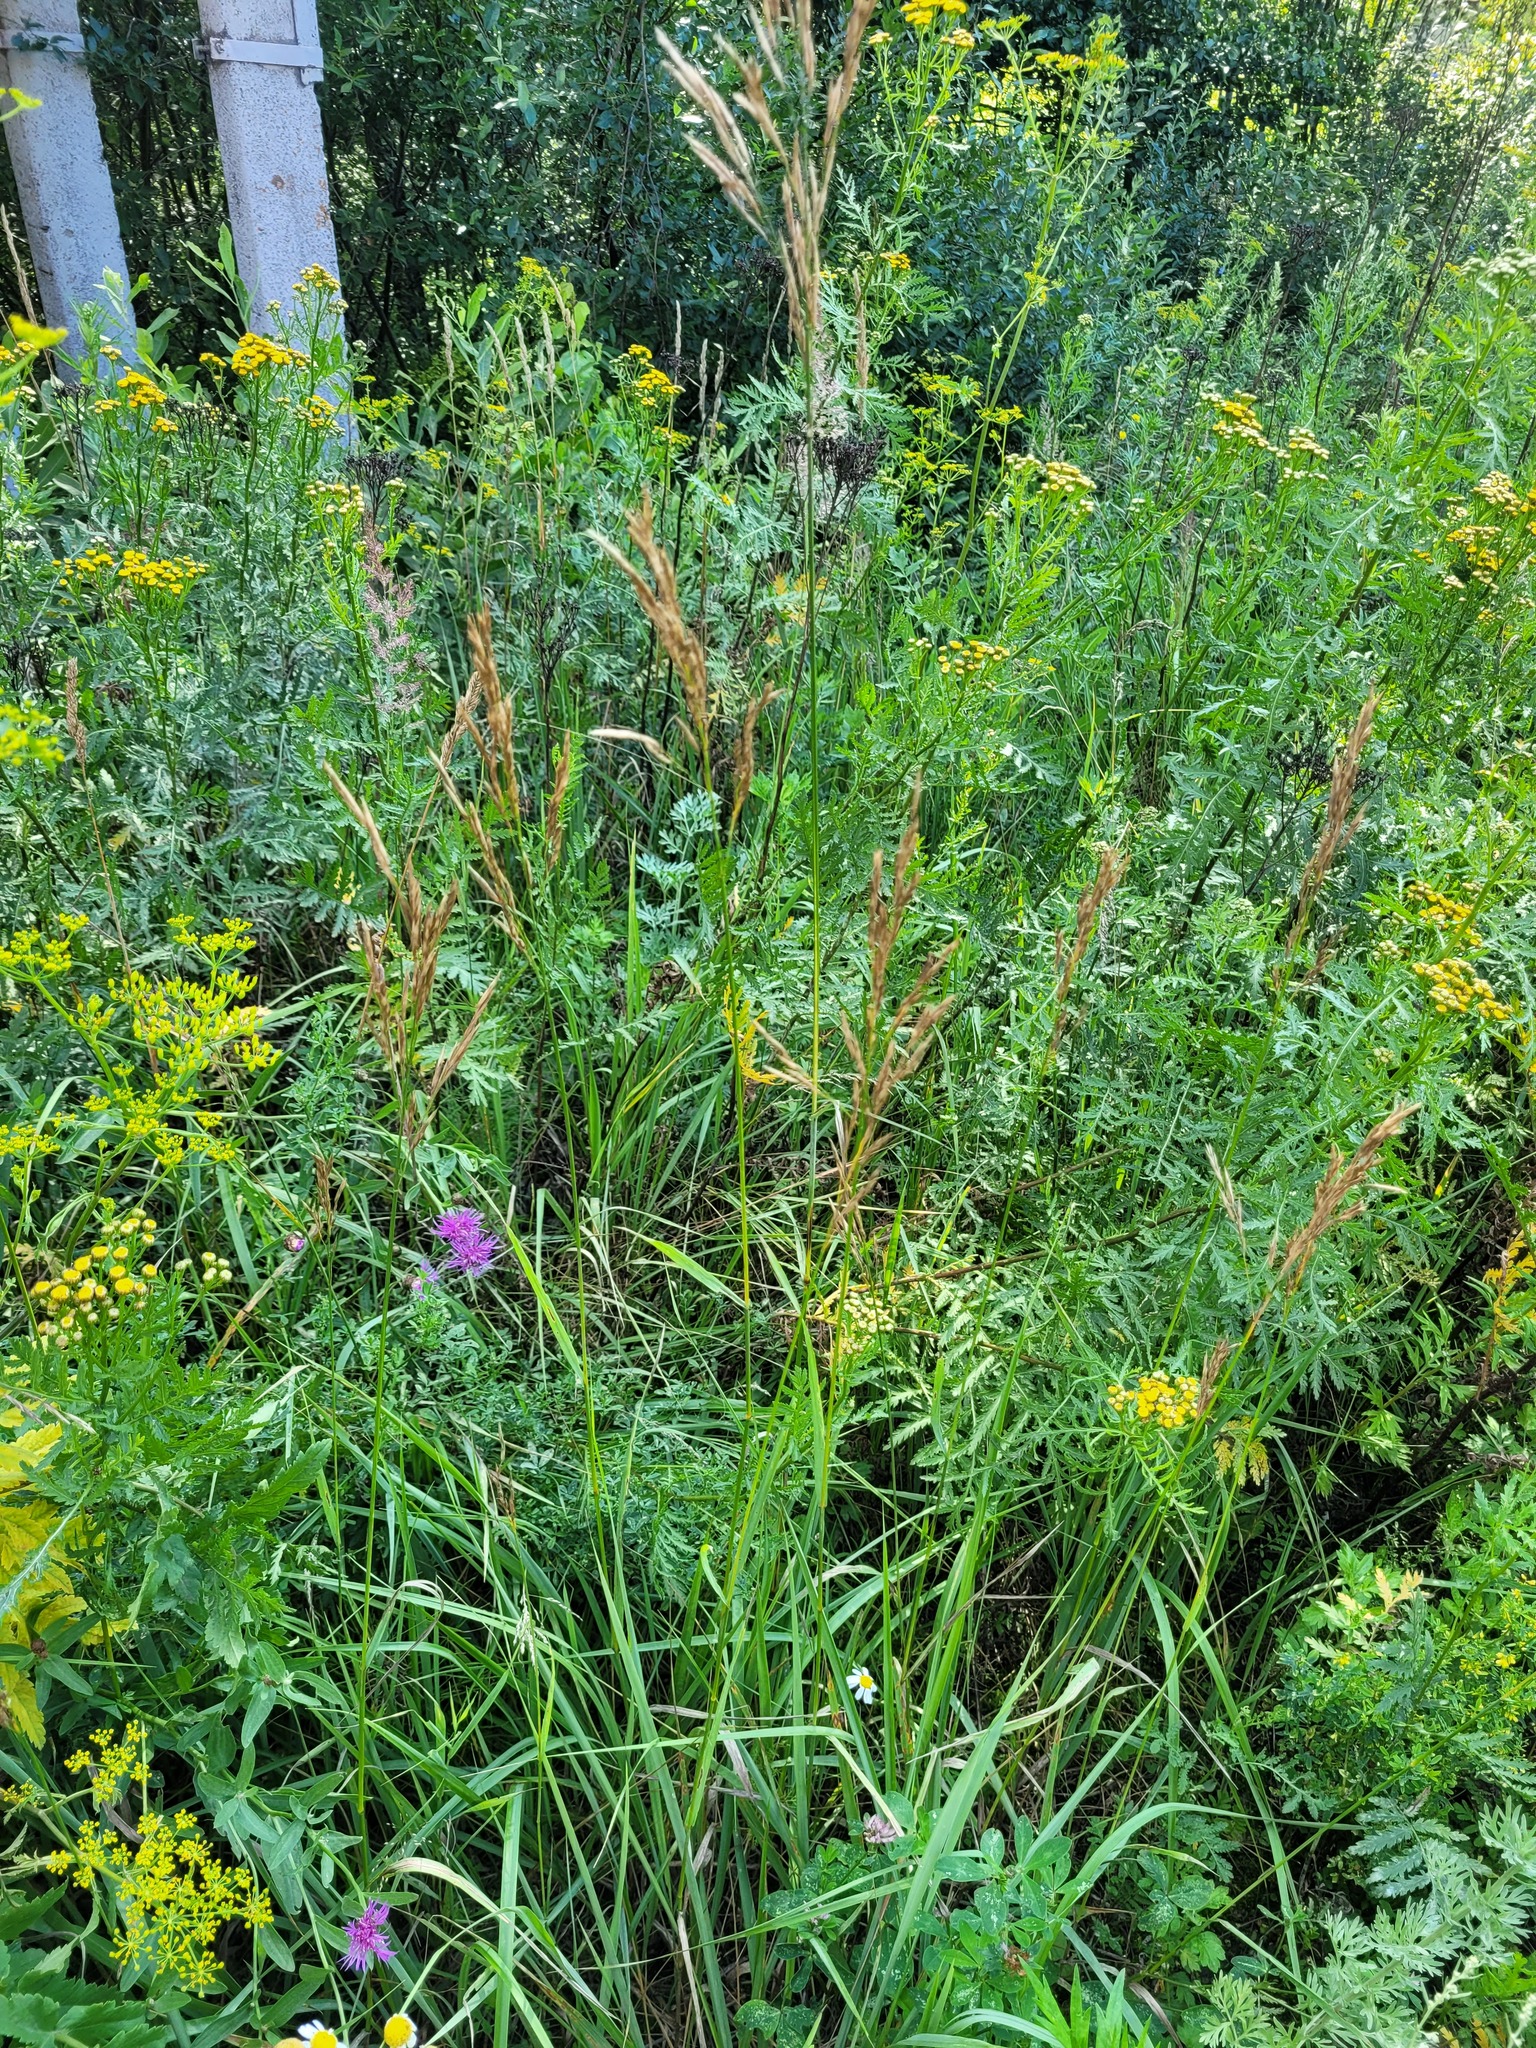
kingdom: Plantae
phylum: Tracheophyta
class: Liliopsida
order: Poales
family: Poaceae
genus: Bromus
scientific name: Bromus inermis
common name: Smooth brome
